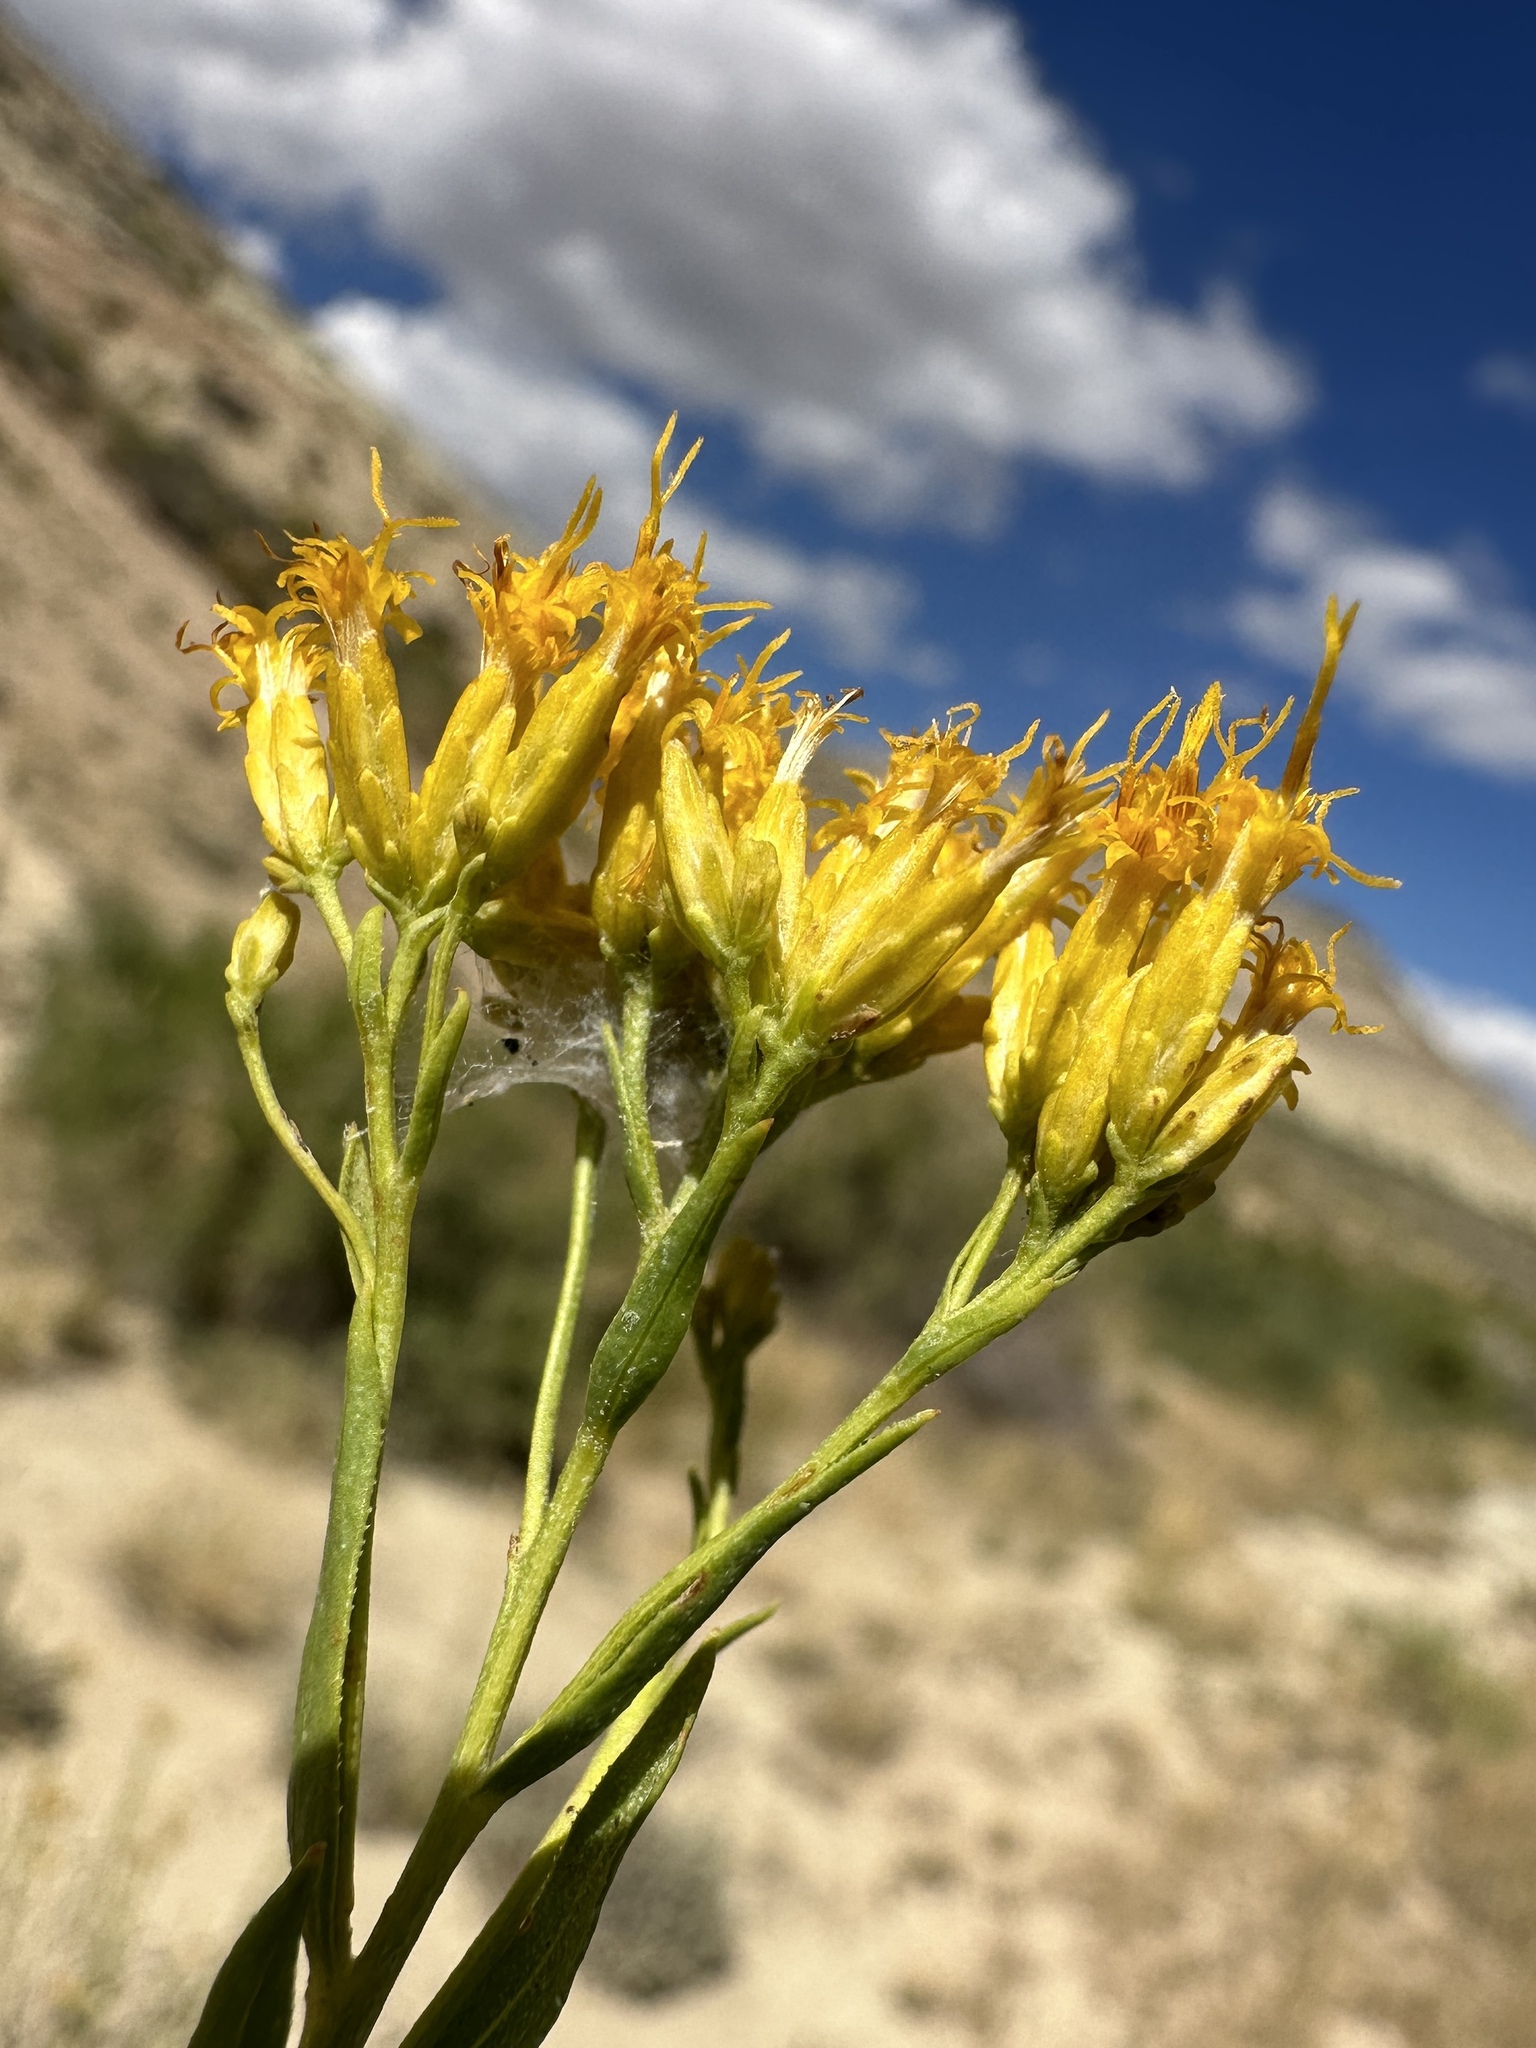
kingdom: Plantae
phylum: Tracheophyta
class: Magnoliopsida
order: Asterales
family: Asteraceae
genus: Lorandersonia
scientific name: Lorandersonia linifolia
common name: Spear-leaf rabbitbush
